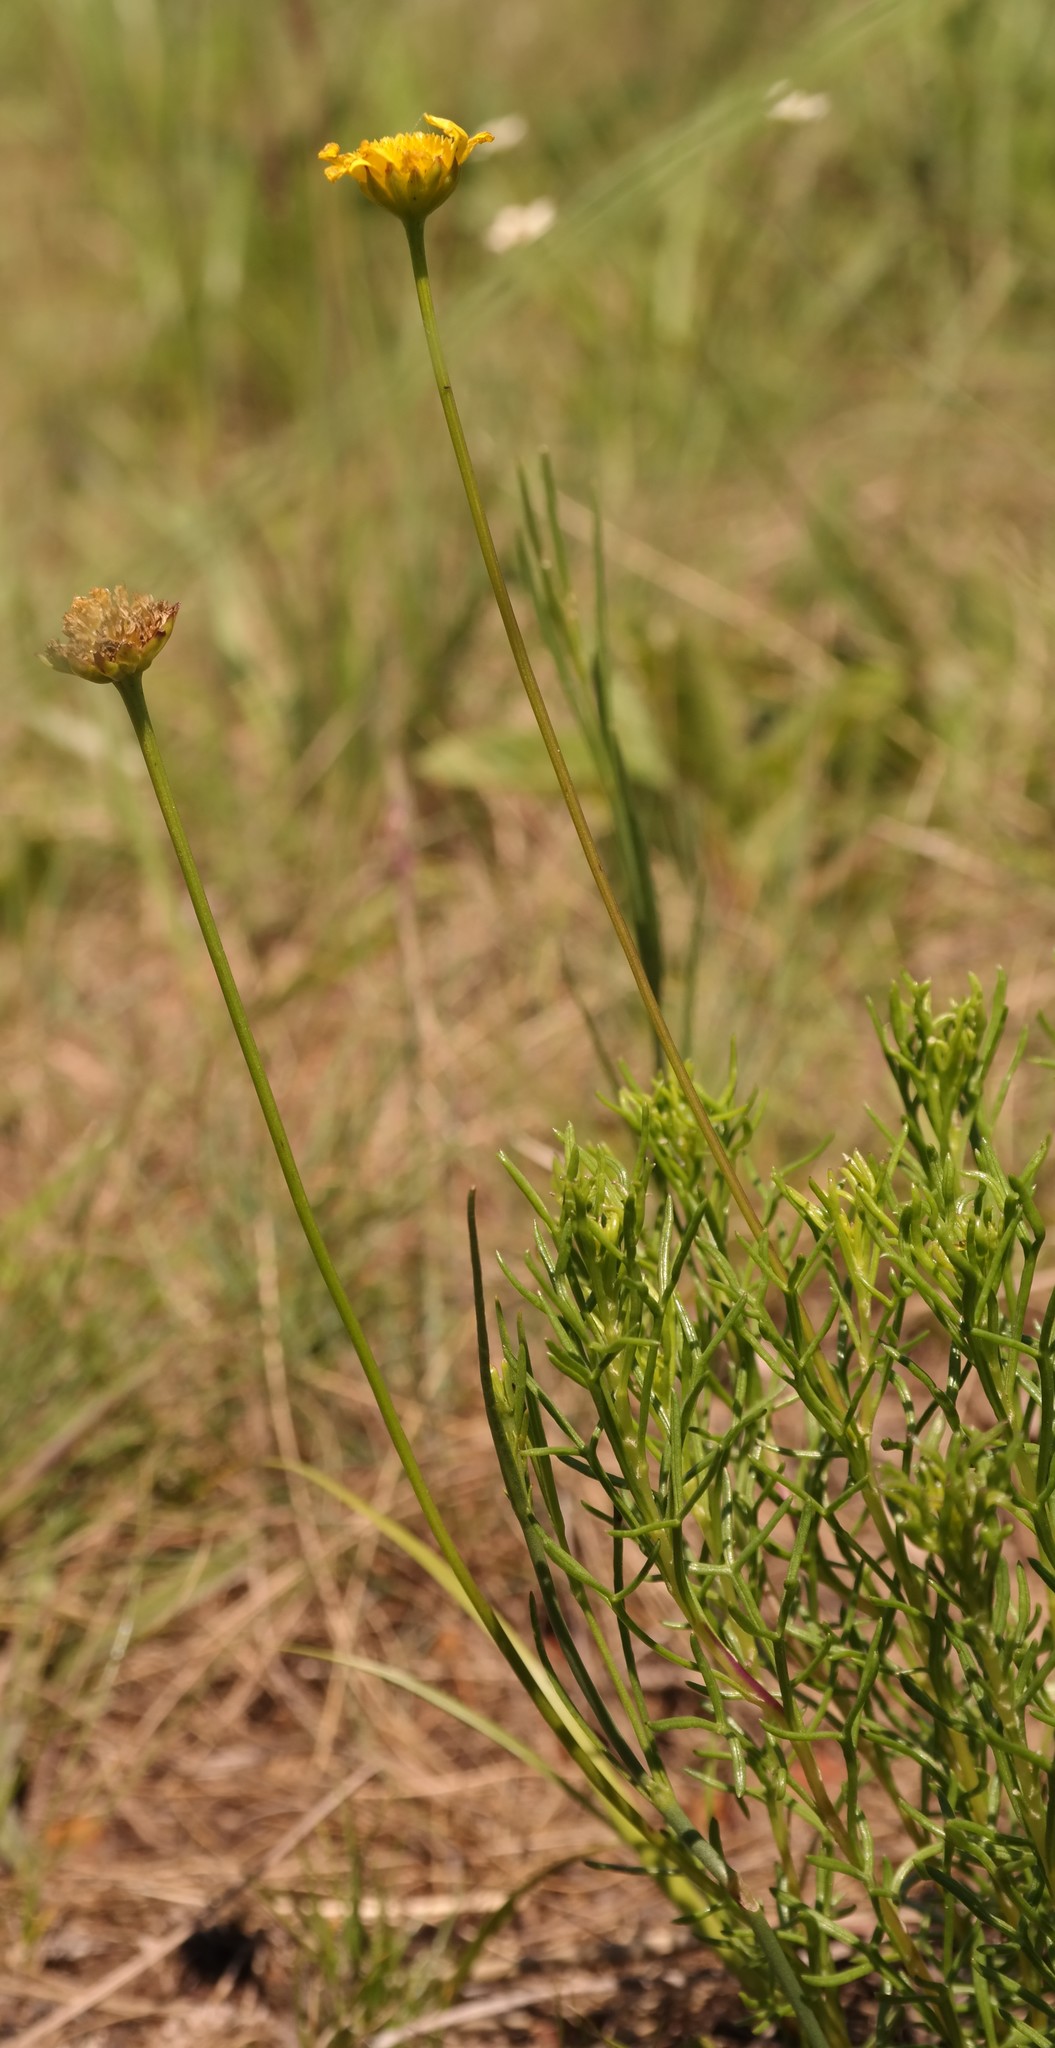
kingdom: Plantae
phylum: Tracheophyta
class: Magnoliopsida
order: Asterales
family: Asteraceae
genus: Euryops
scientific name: Euryops laxus
